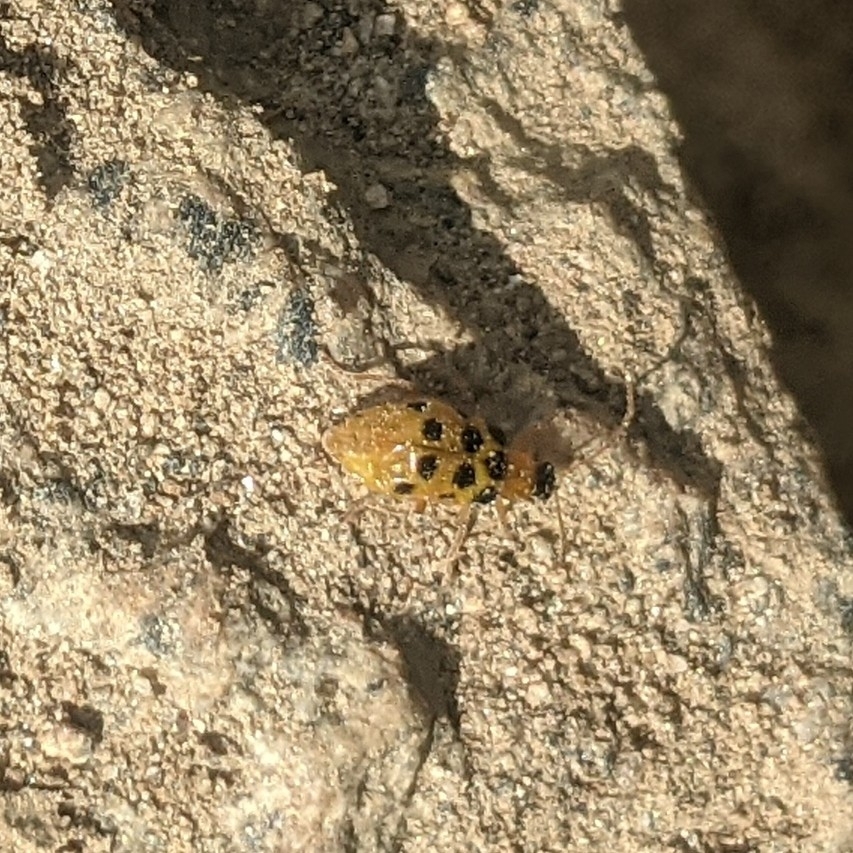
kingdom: Animalia
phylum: Arthropoda
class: Insecta
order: Coleoptera
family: Chrysomelidae
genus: Diabrotica
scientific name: Diabrotica
